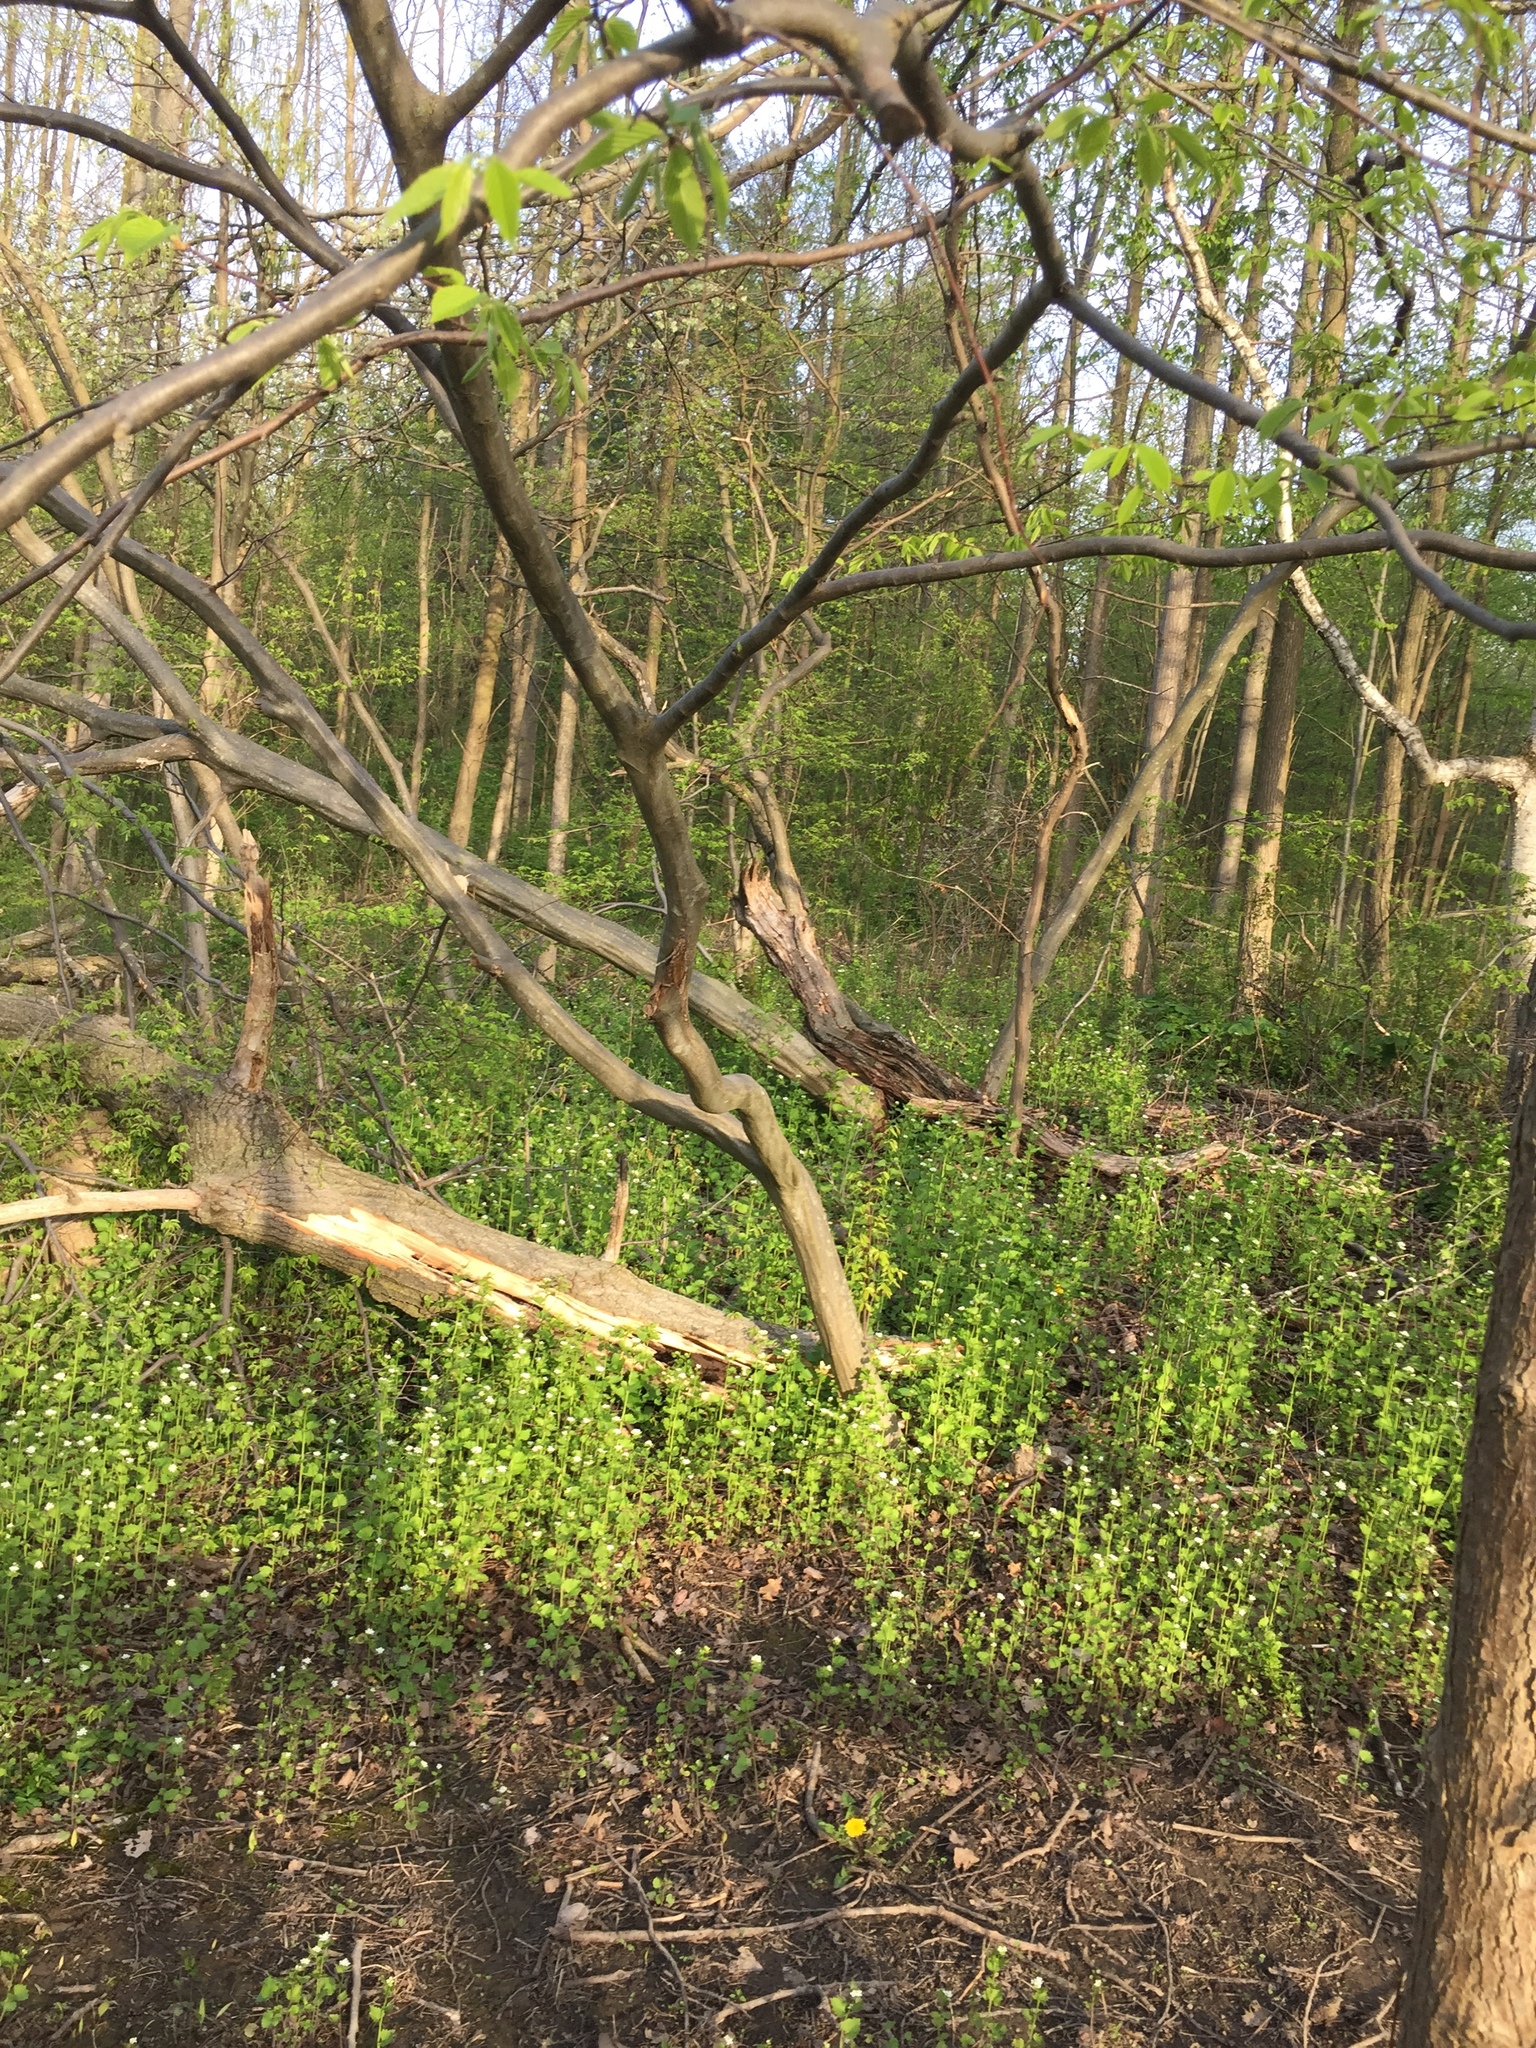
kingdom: Plantae
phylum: Tracheophyta
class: Magnoliopsida
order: Fagales
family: Betulaceae
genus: Carpinus
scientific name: Carpinus caroliniana
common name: American hornbeam
